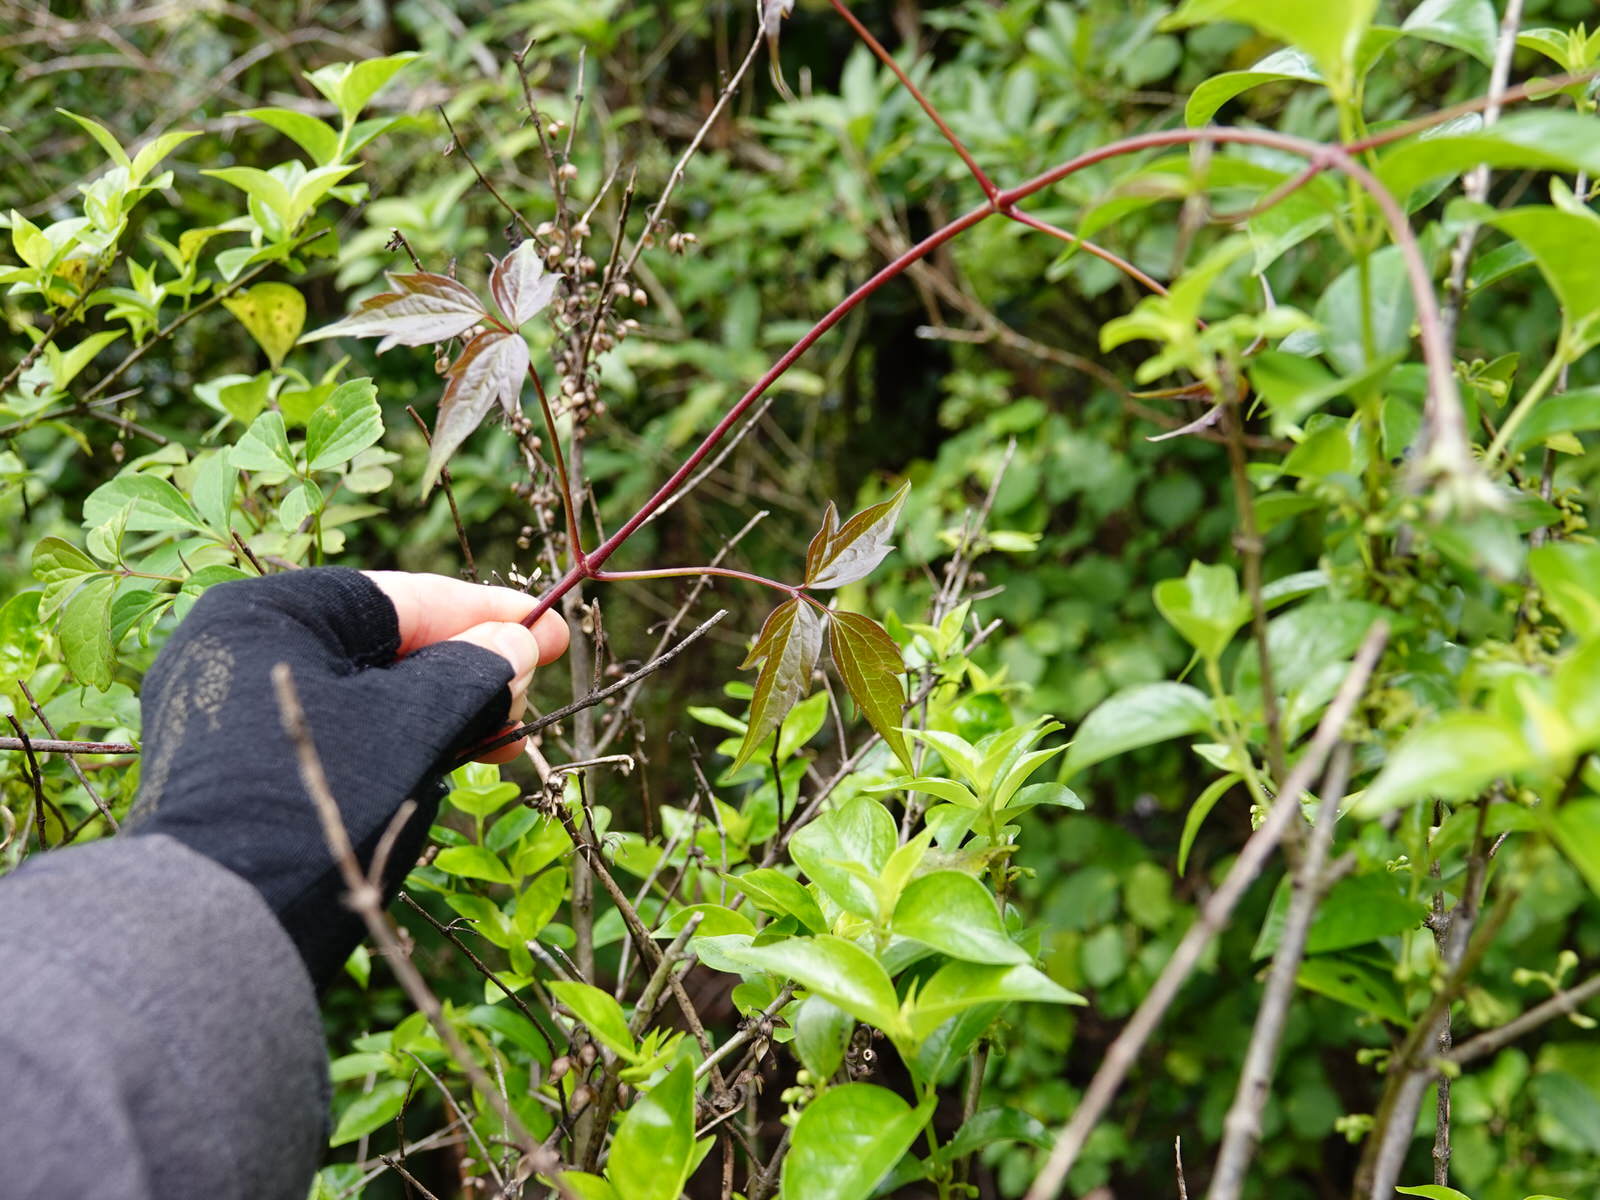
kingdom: Plantae
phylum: Tracheophyta
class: Magnoliopsida
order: Ranunculales
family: Ranunculaceae
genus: Clematis
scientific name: Clematis montana
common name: Himalayan clematis
